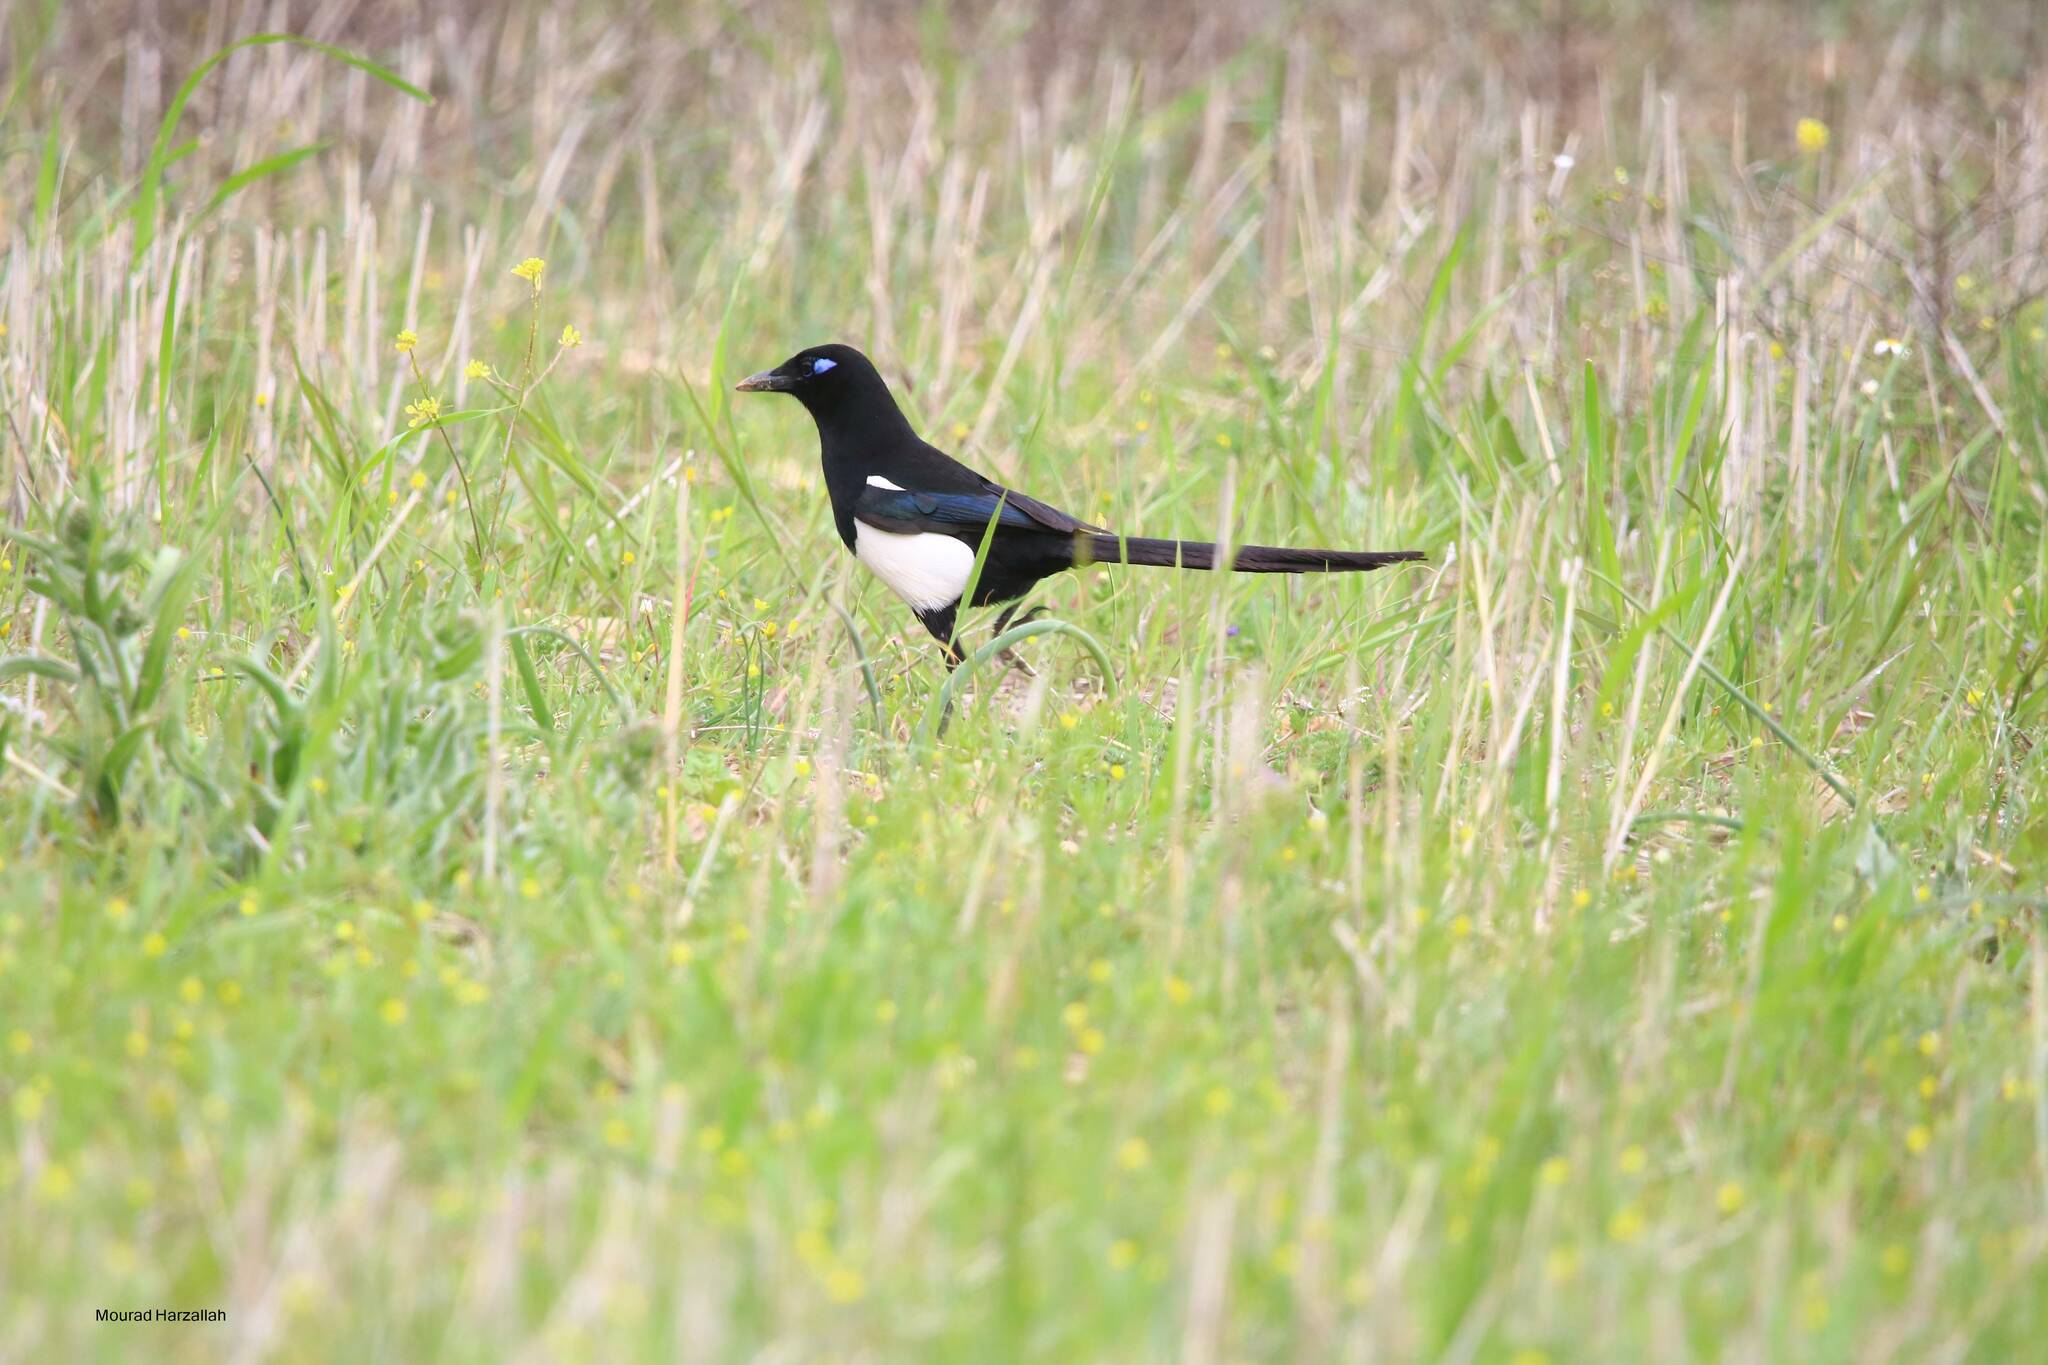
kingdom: Animalia
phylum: Chordata
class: Aves
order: Passeriformes
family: Corvidae
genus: Pica
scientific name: Pica mauritanica
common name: Maghreb magpie
